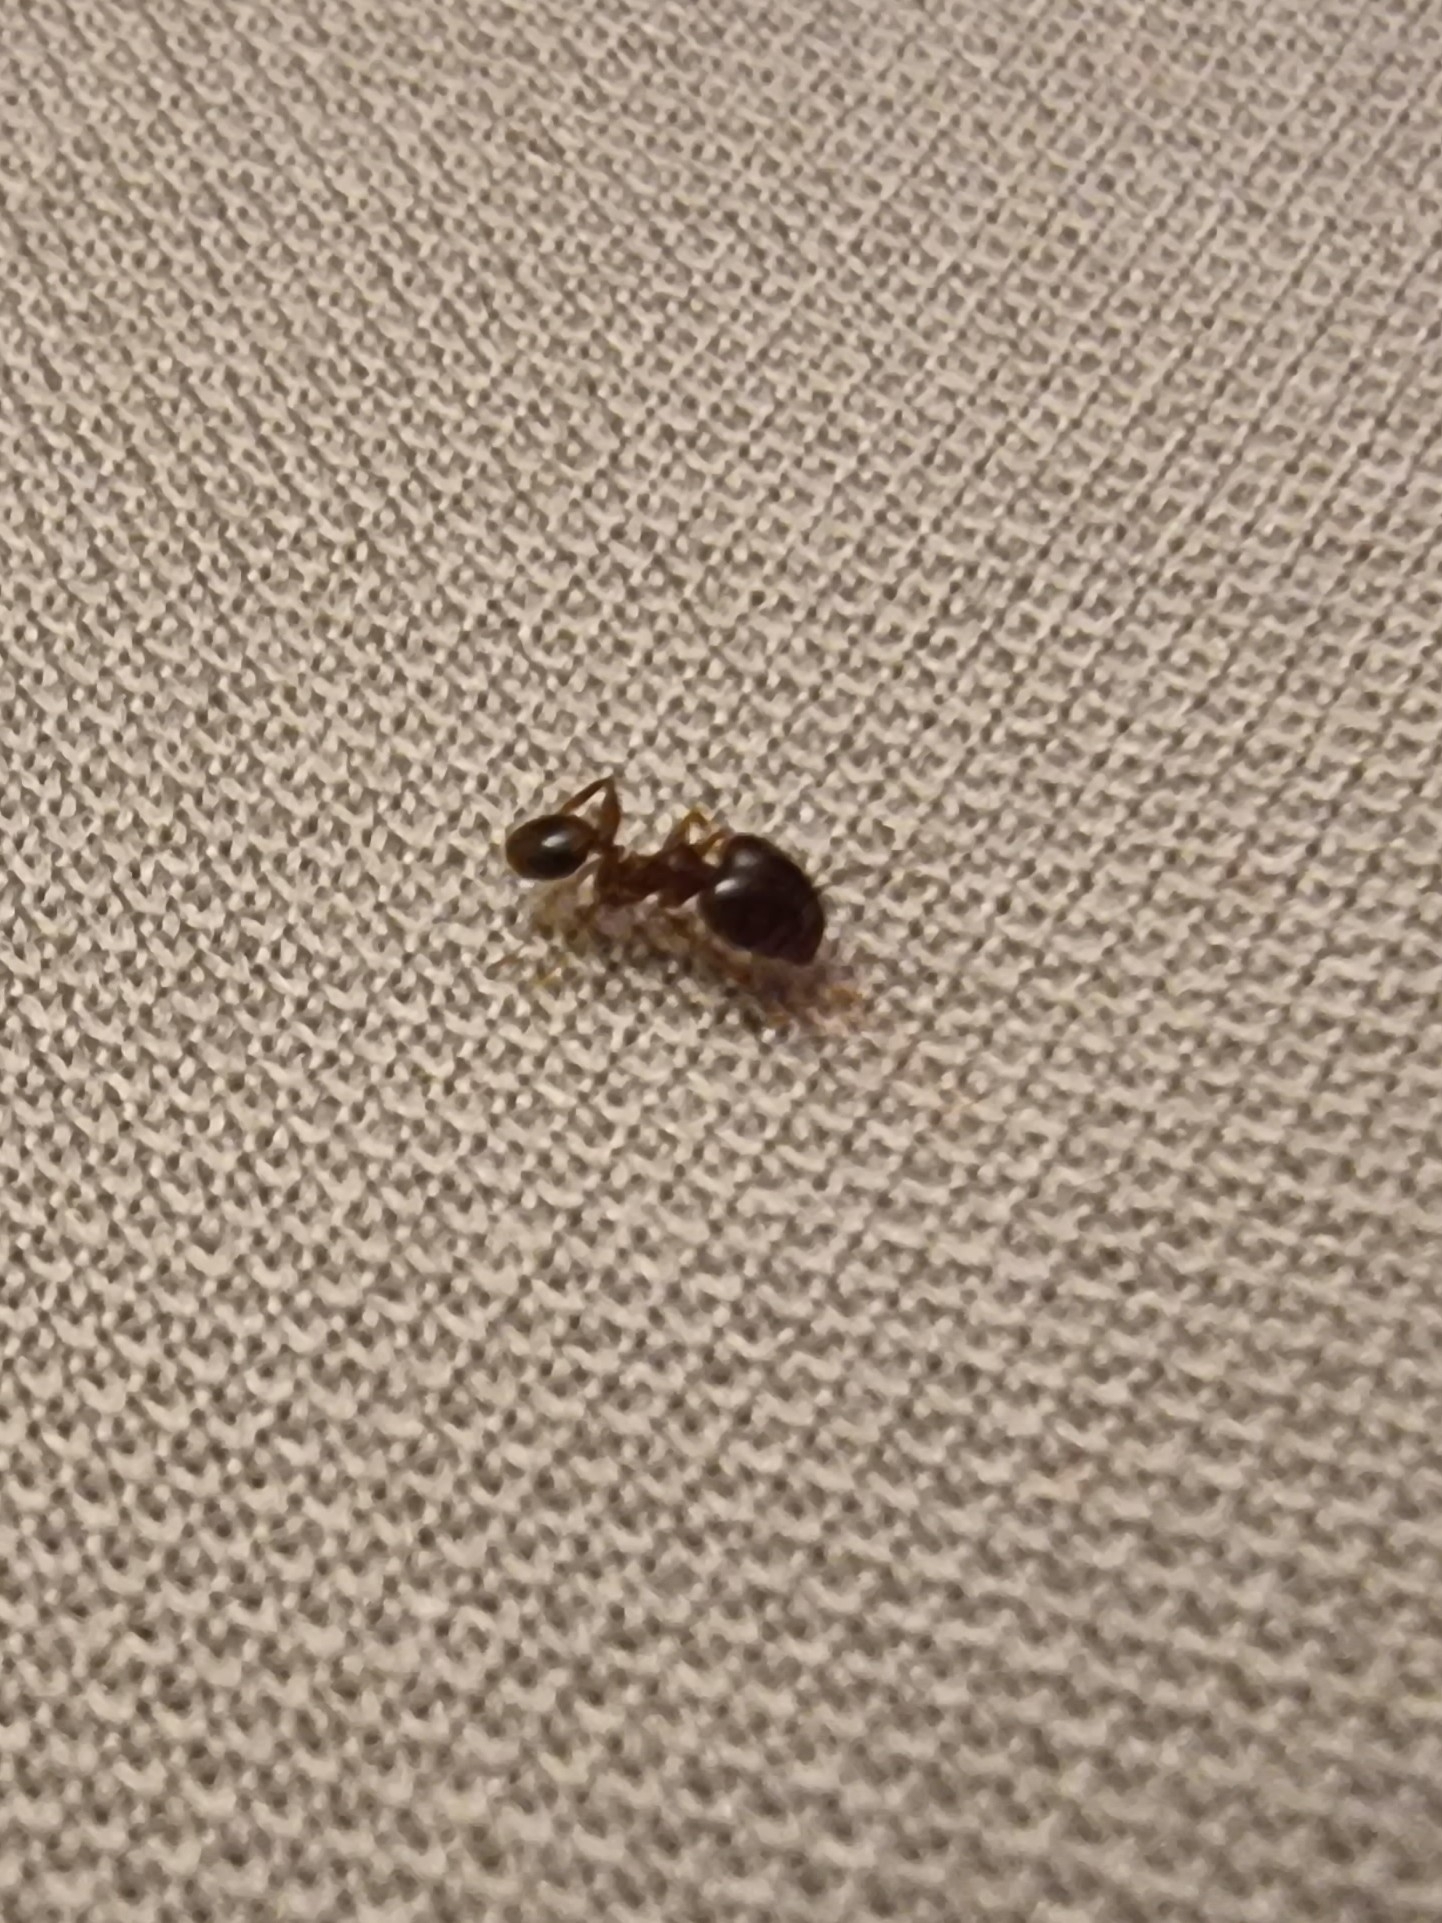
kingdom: Animalia
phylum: Arthropoda
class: Insecta
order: Hymenoptera
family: Formicidae
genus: Pheidole
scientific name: Pheidole megacephala
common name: Bigheaded ant
